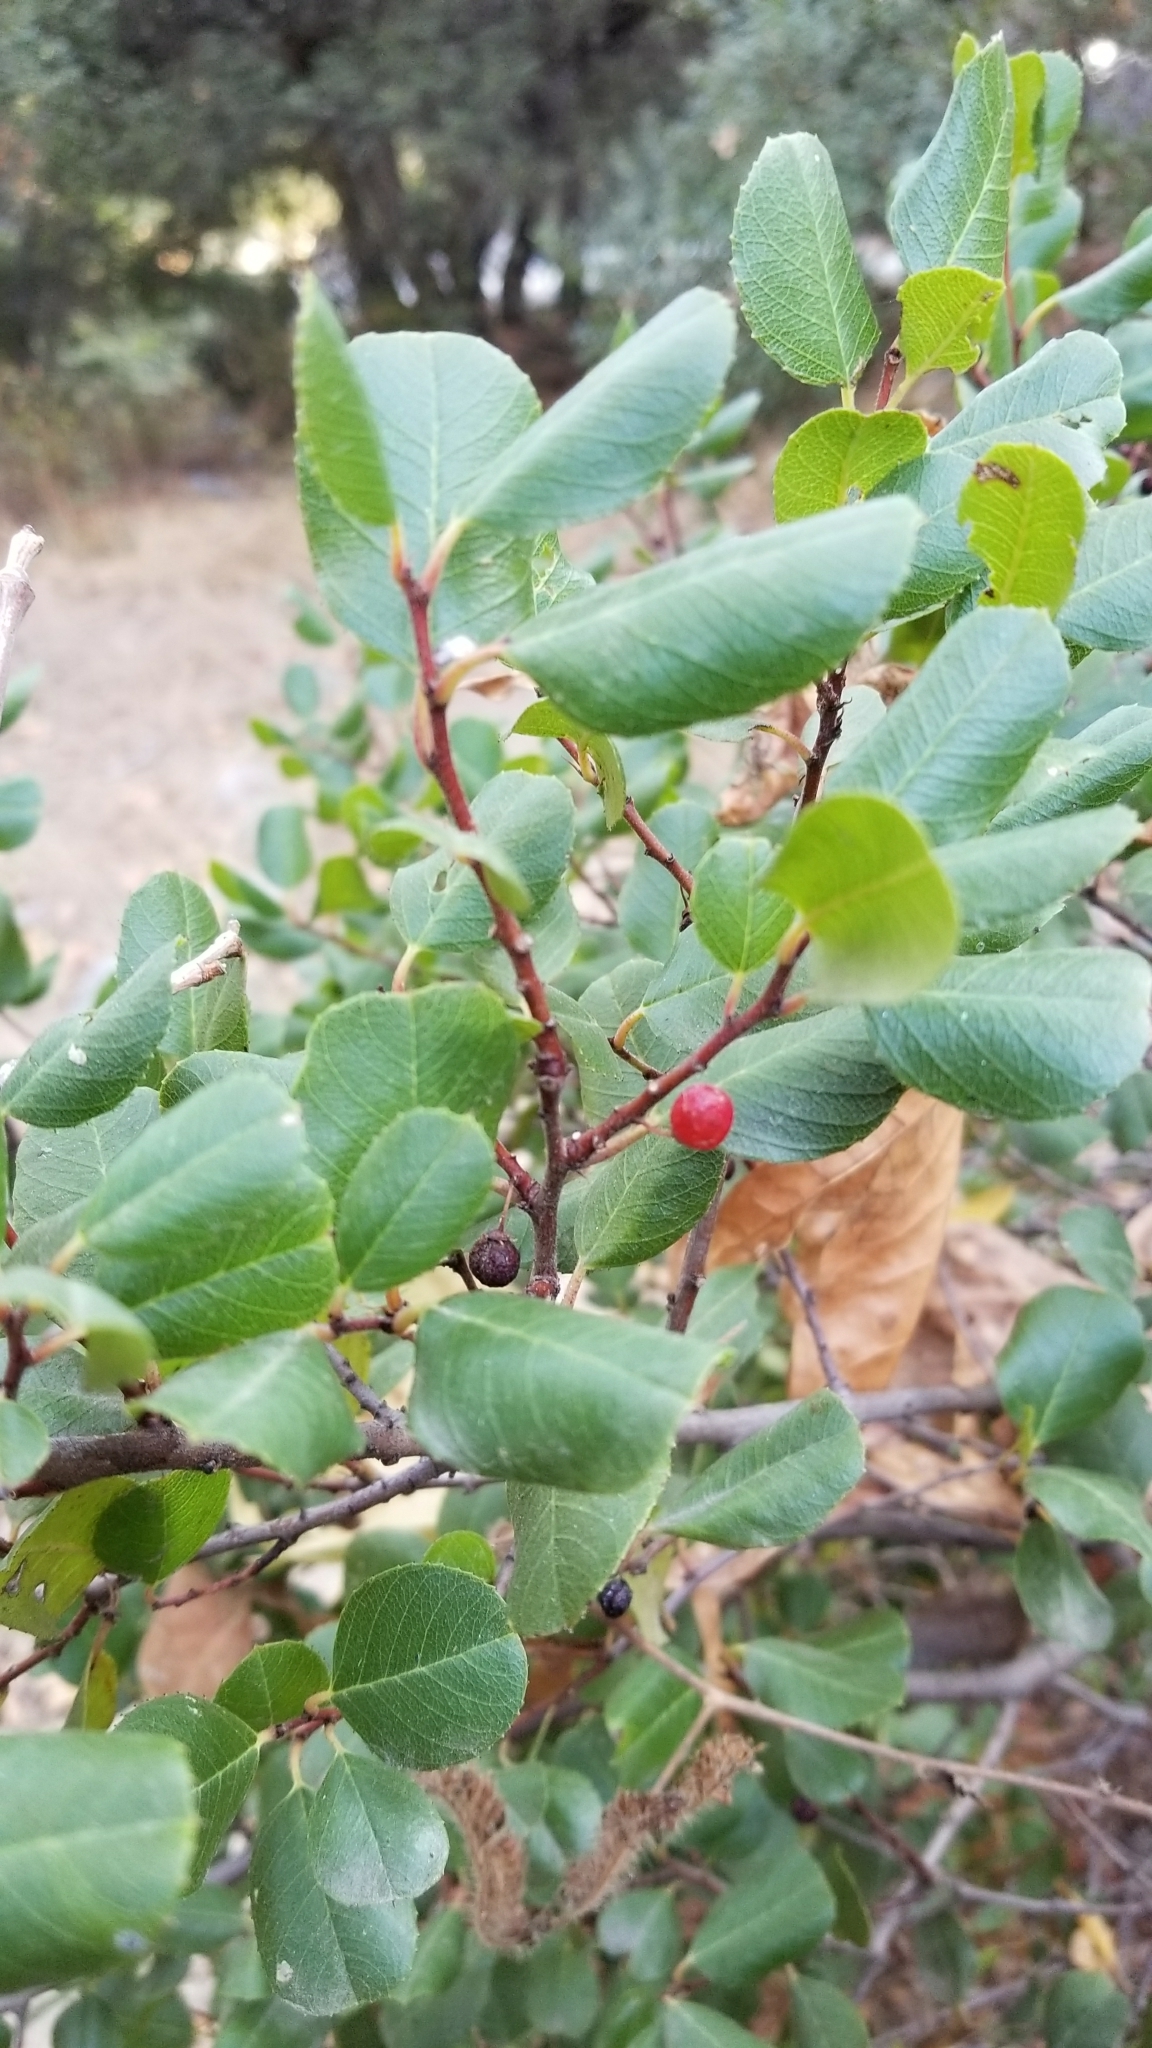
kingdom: Plantae
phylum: Tracheophyta
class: Magnoliopsida
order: Rosales
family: Rhamnaceae
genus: Endotropis
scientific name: Endotropis crocea
